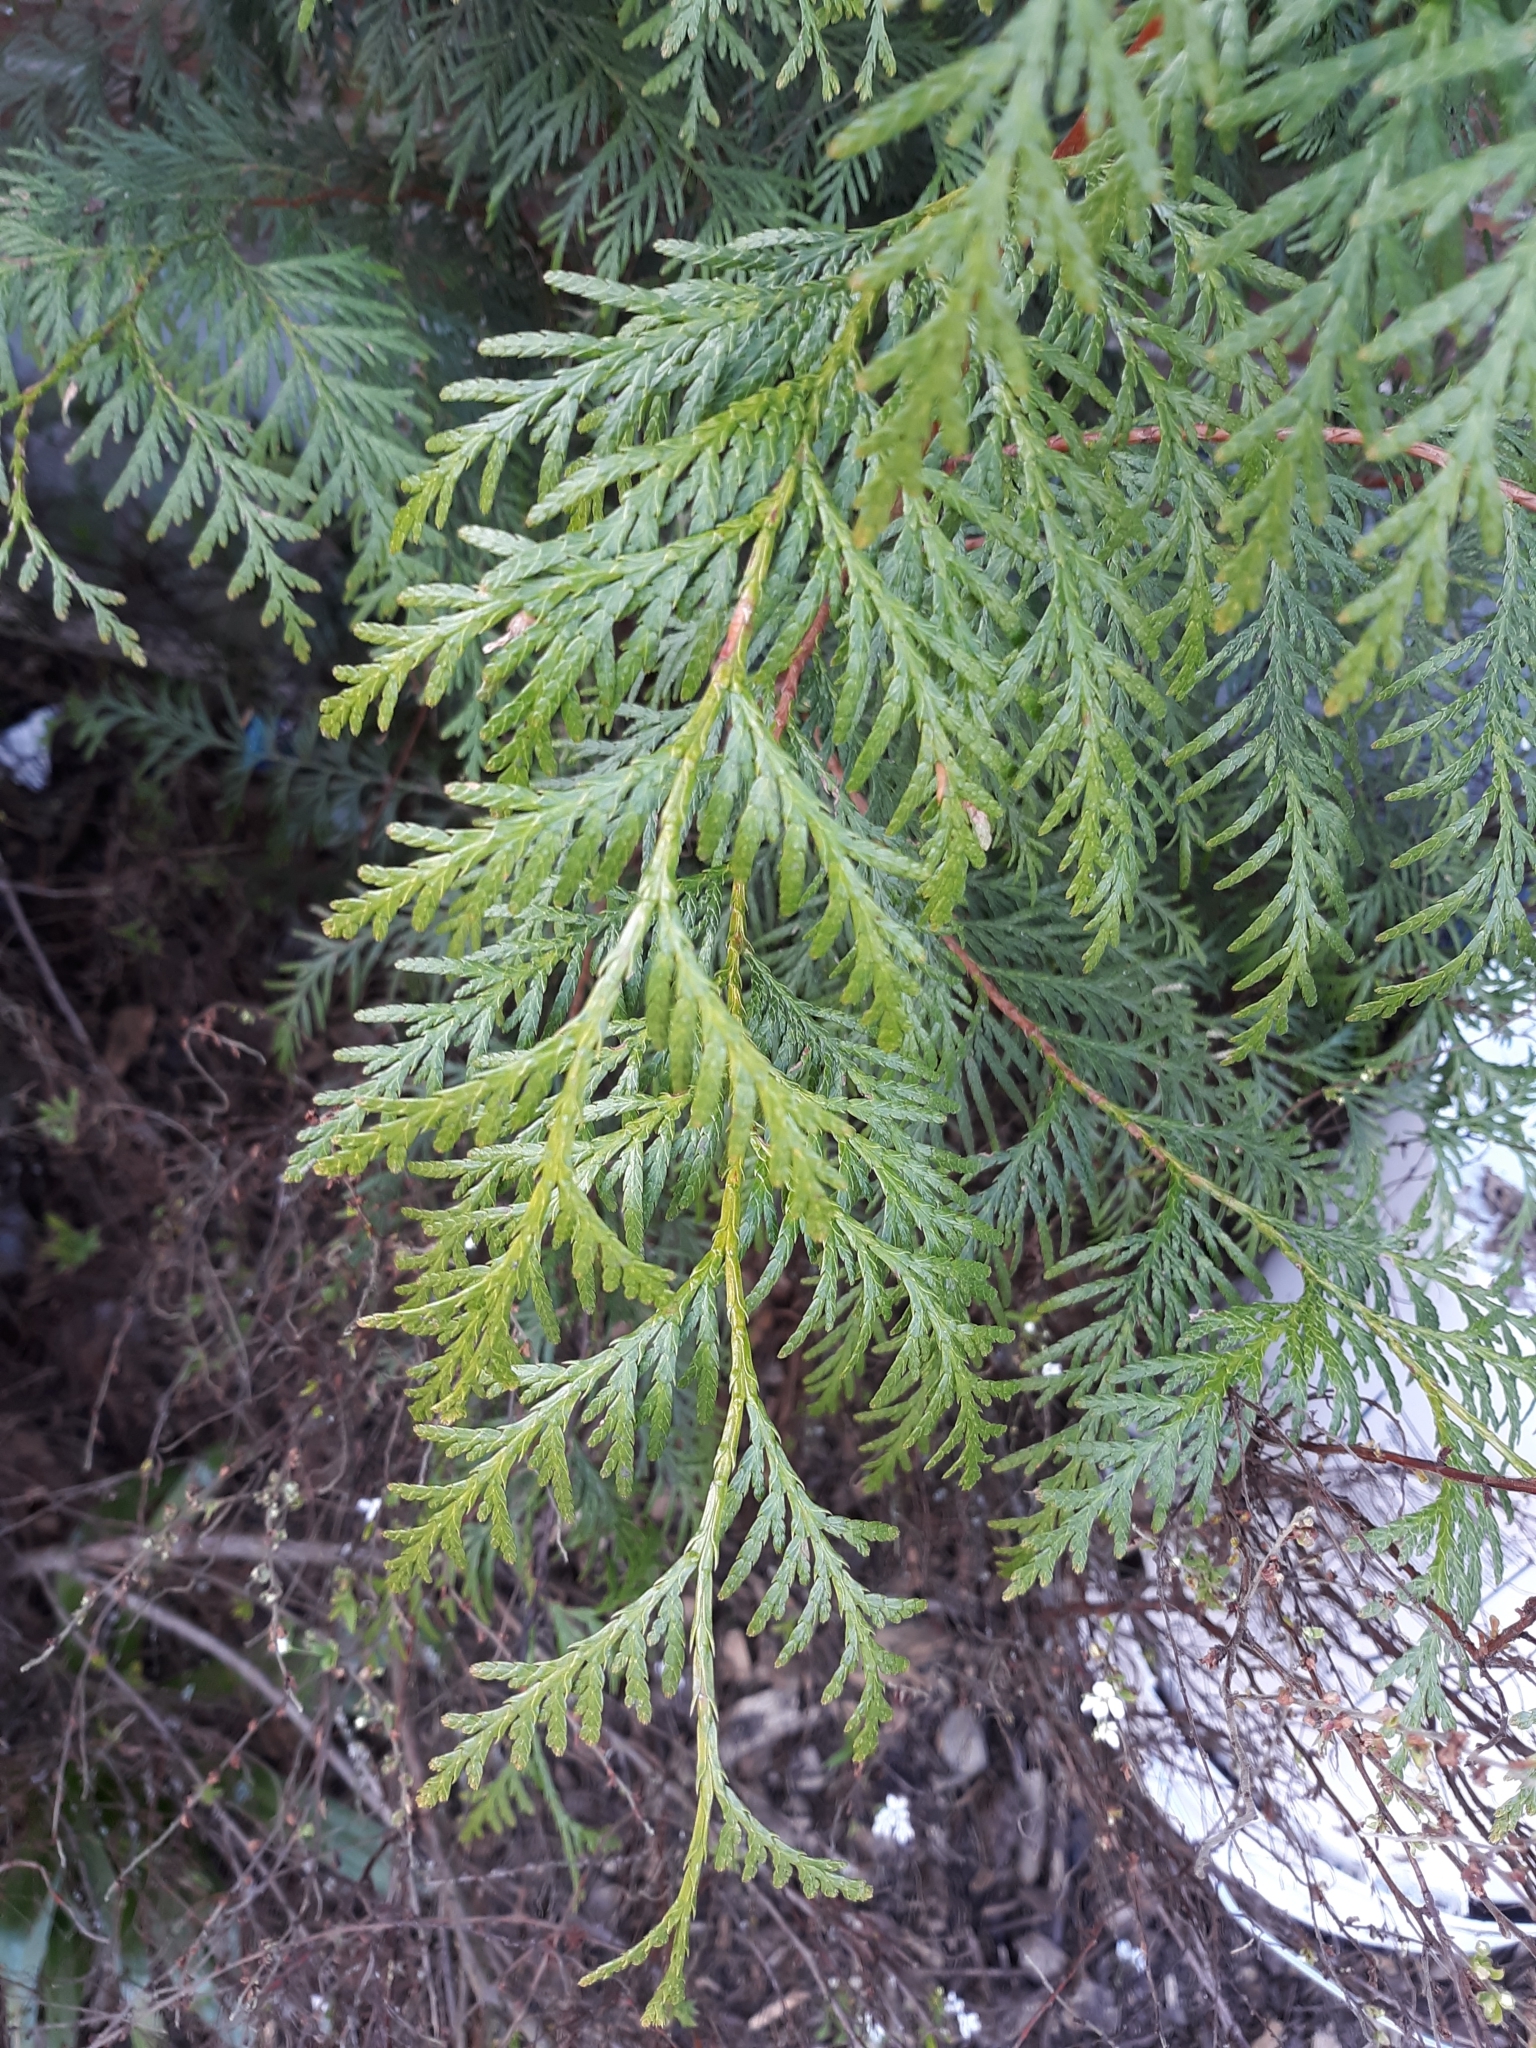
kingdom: Plantae
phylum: Tracheophyta
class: Pinopsida
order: Pinales
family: Cupressaceae
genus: Thuja
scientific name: Thuja plicata
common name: Western red-cedar
